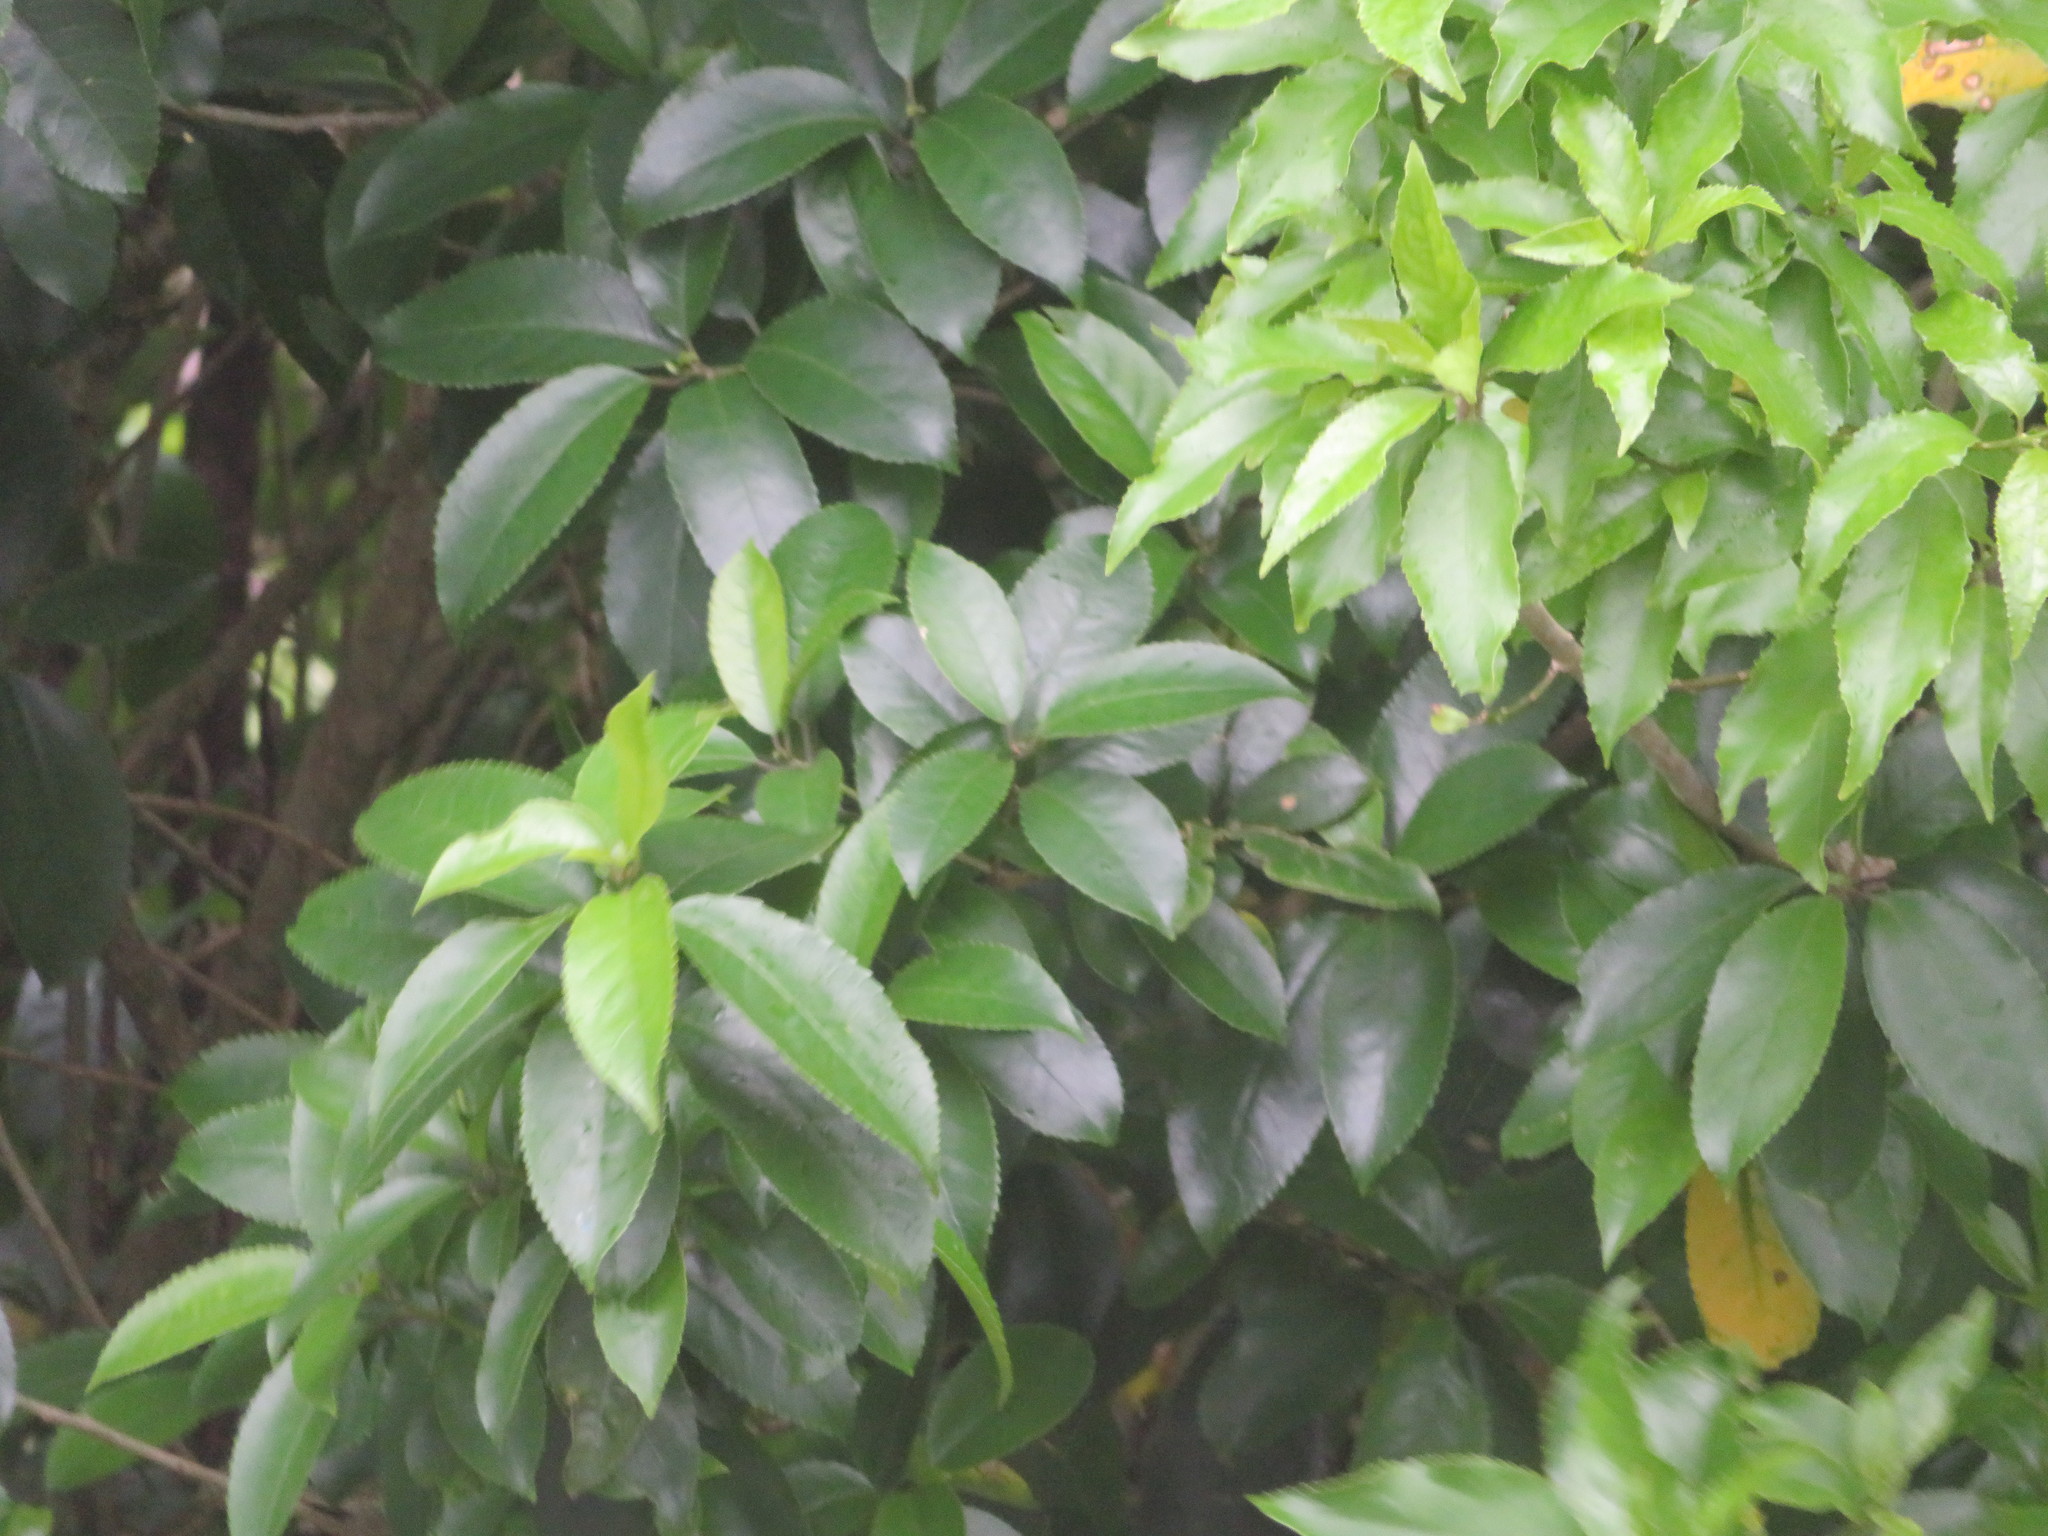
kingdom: Plantae
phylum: Tracheophyta
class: Magnoliopsida
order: Malpighiales
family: Violaceae
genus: Melicytus
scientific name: Melicytus ramiflorus
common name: Mahoe
